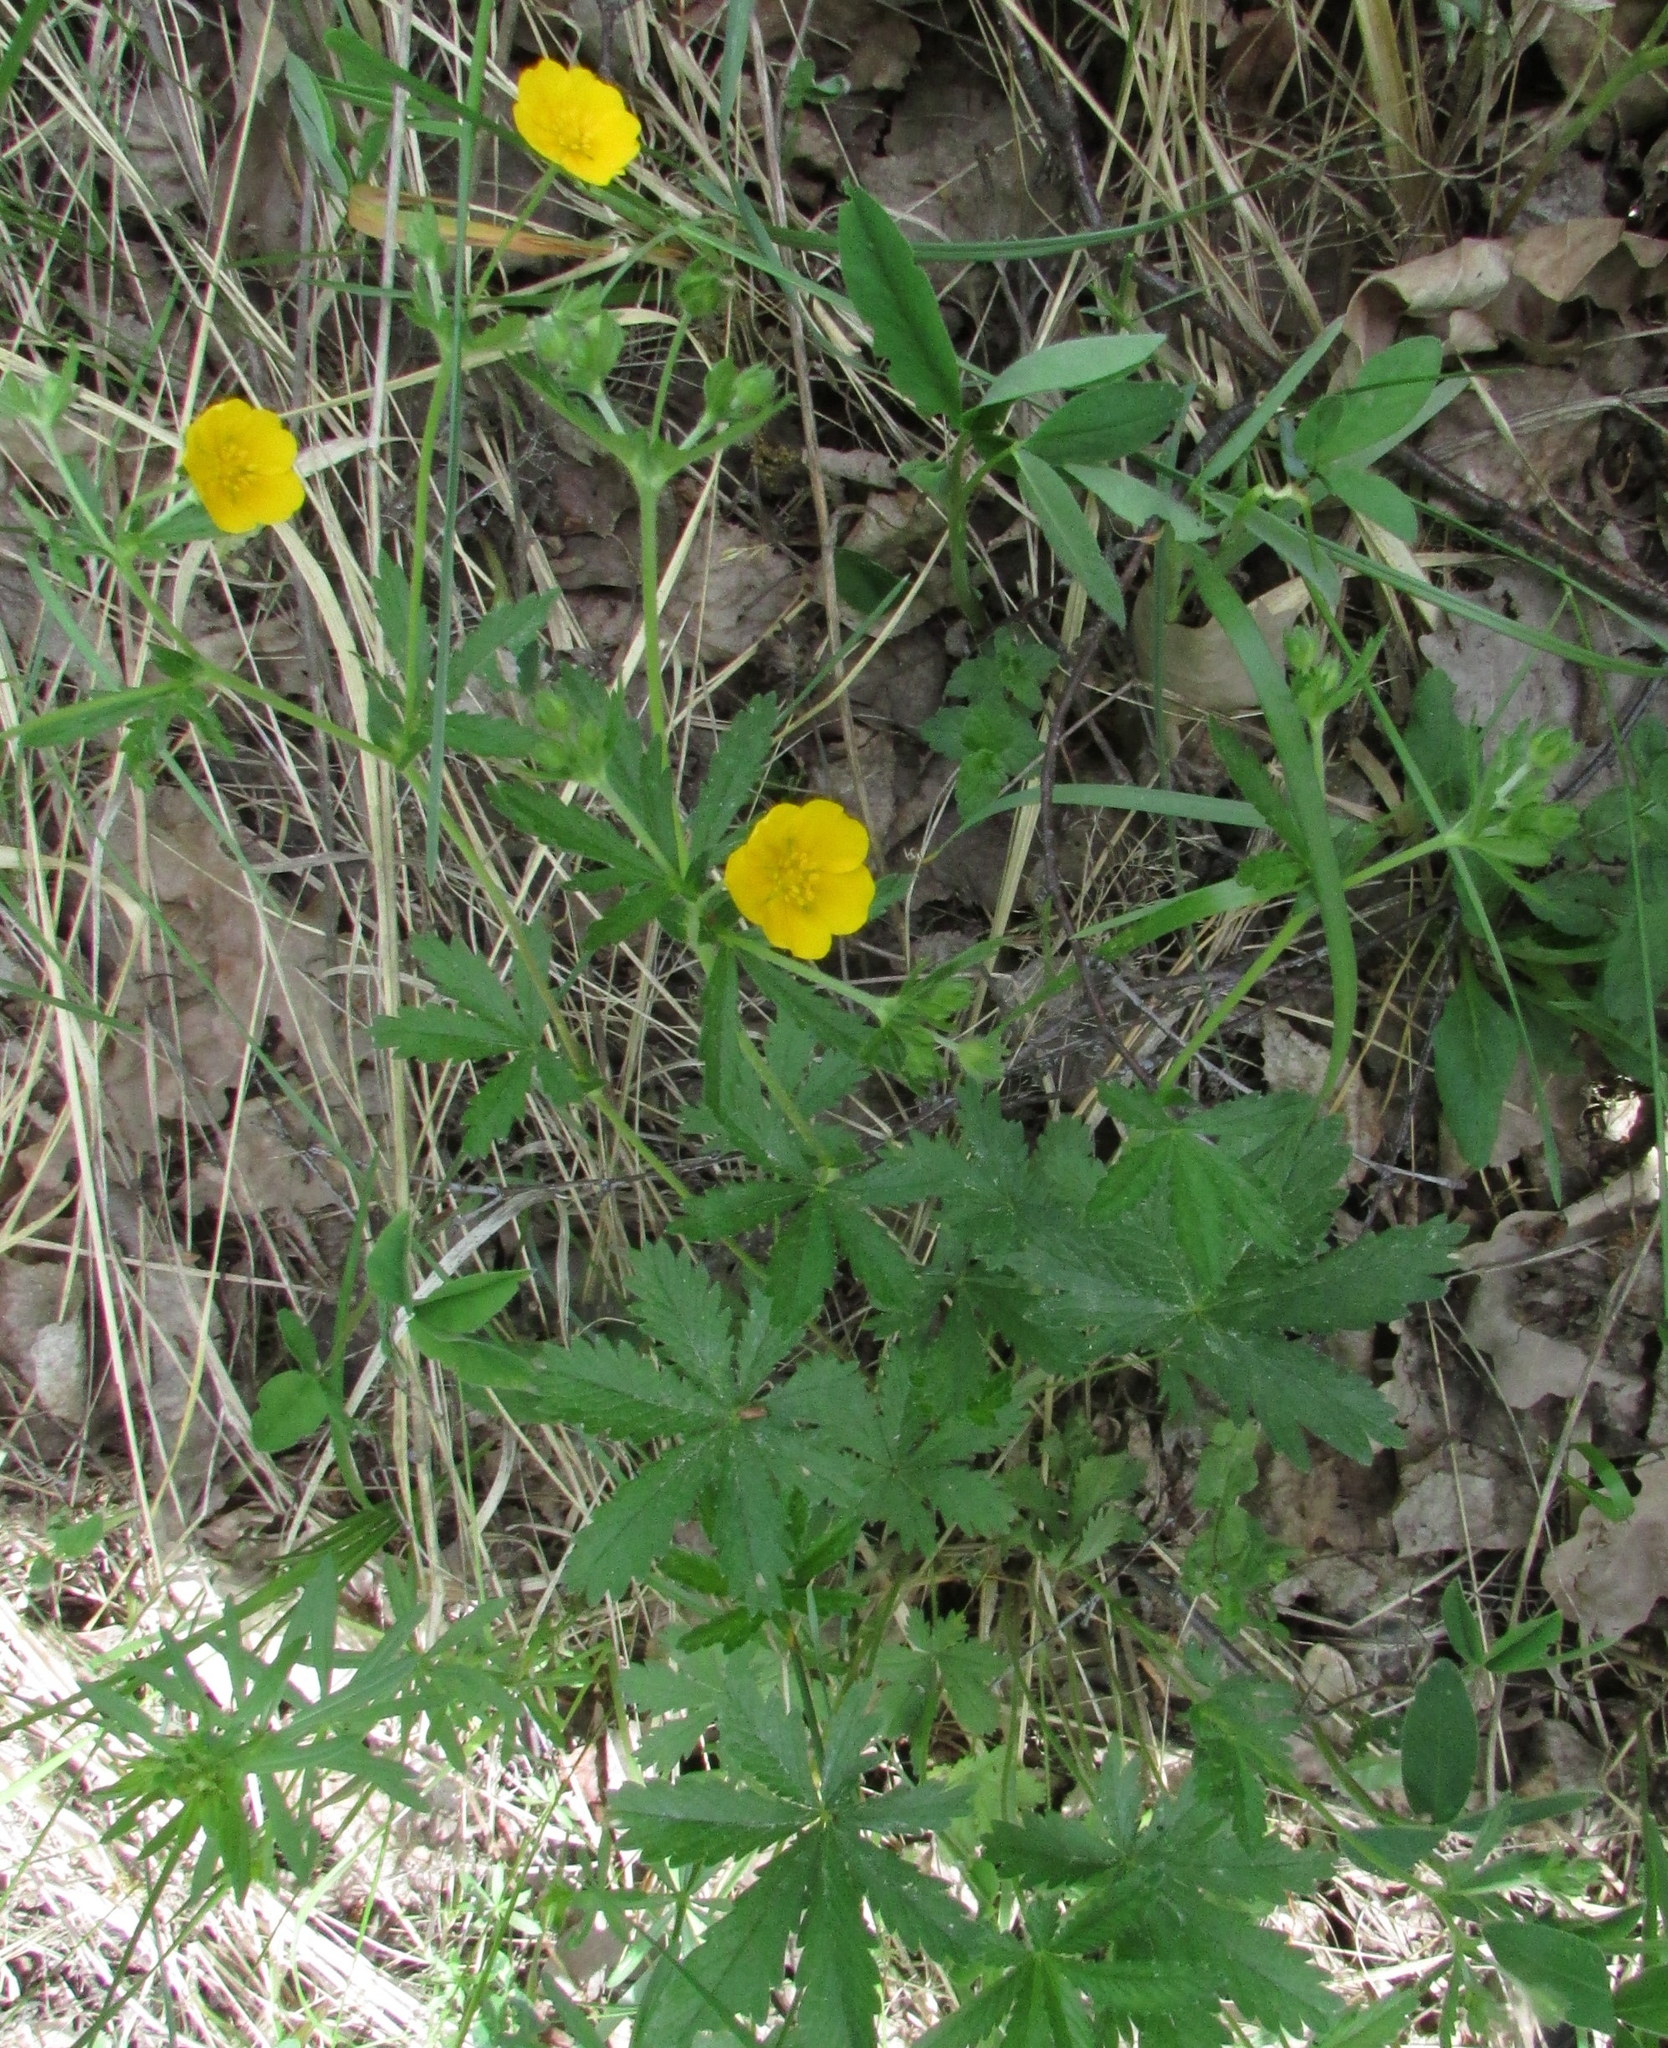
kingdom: Plantae
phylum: Tracheophyta
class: Magnoliopsida
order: Rosales
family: Rosaceae
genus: Potentilla
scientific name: Potentilla thuringiaca
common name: European cinquefoil
